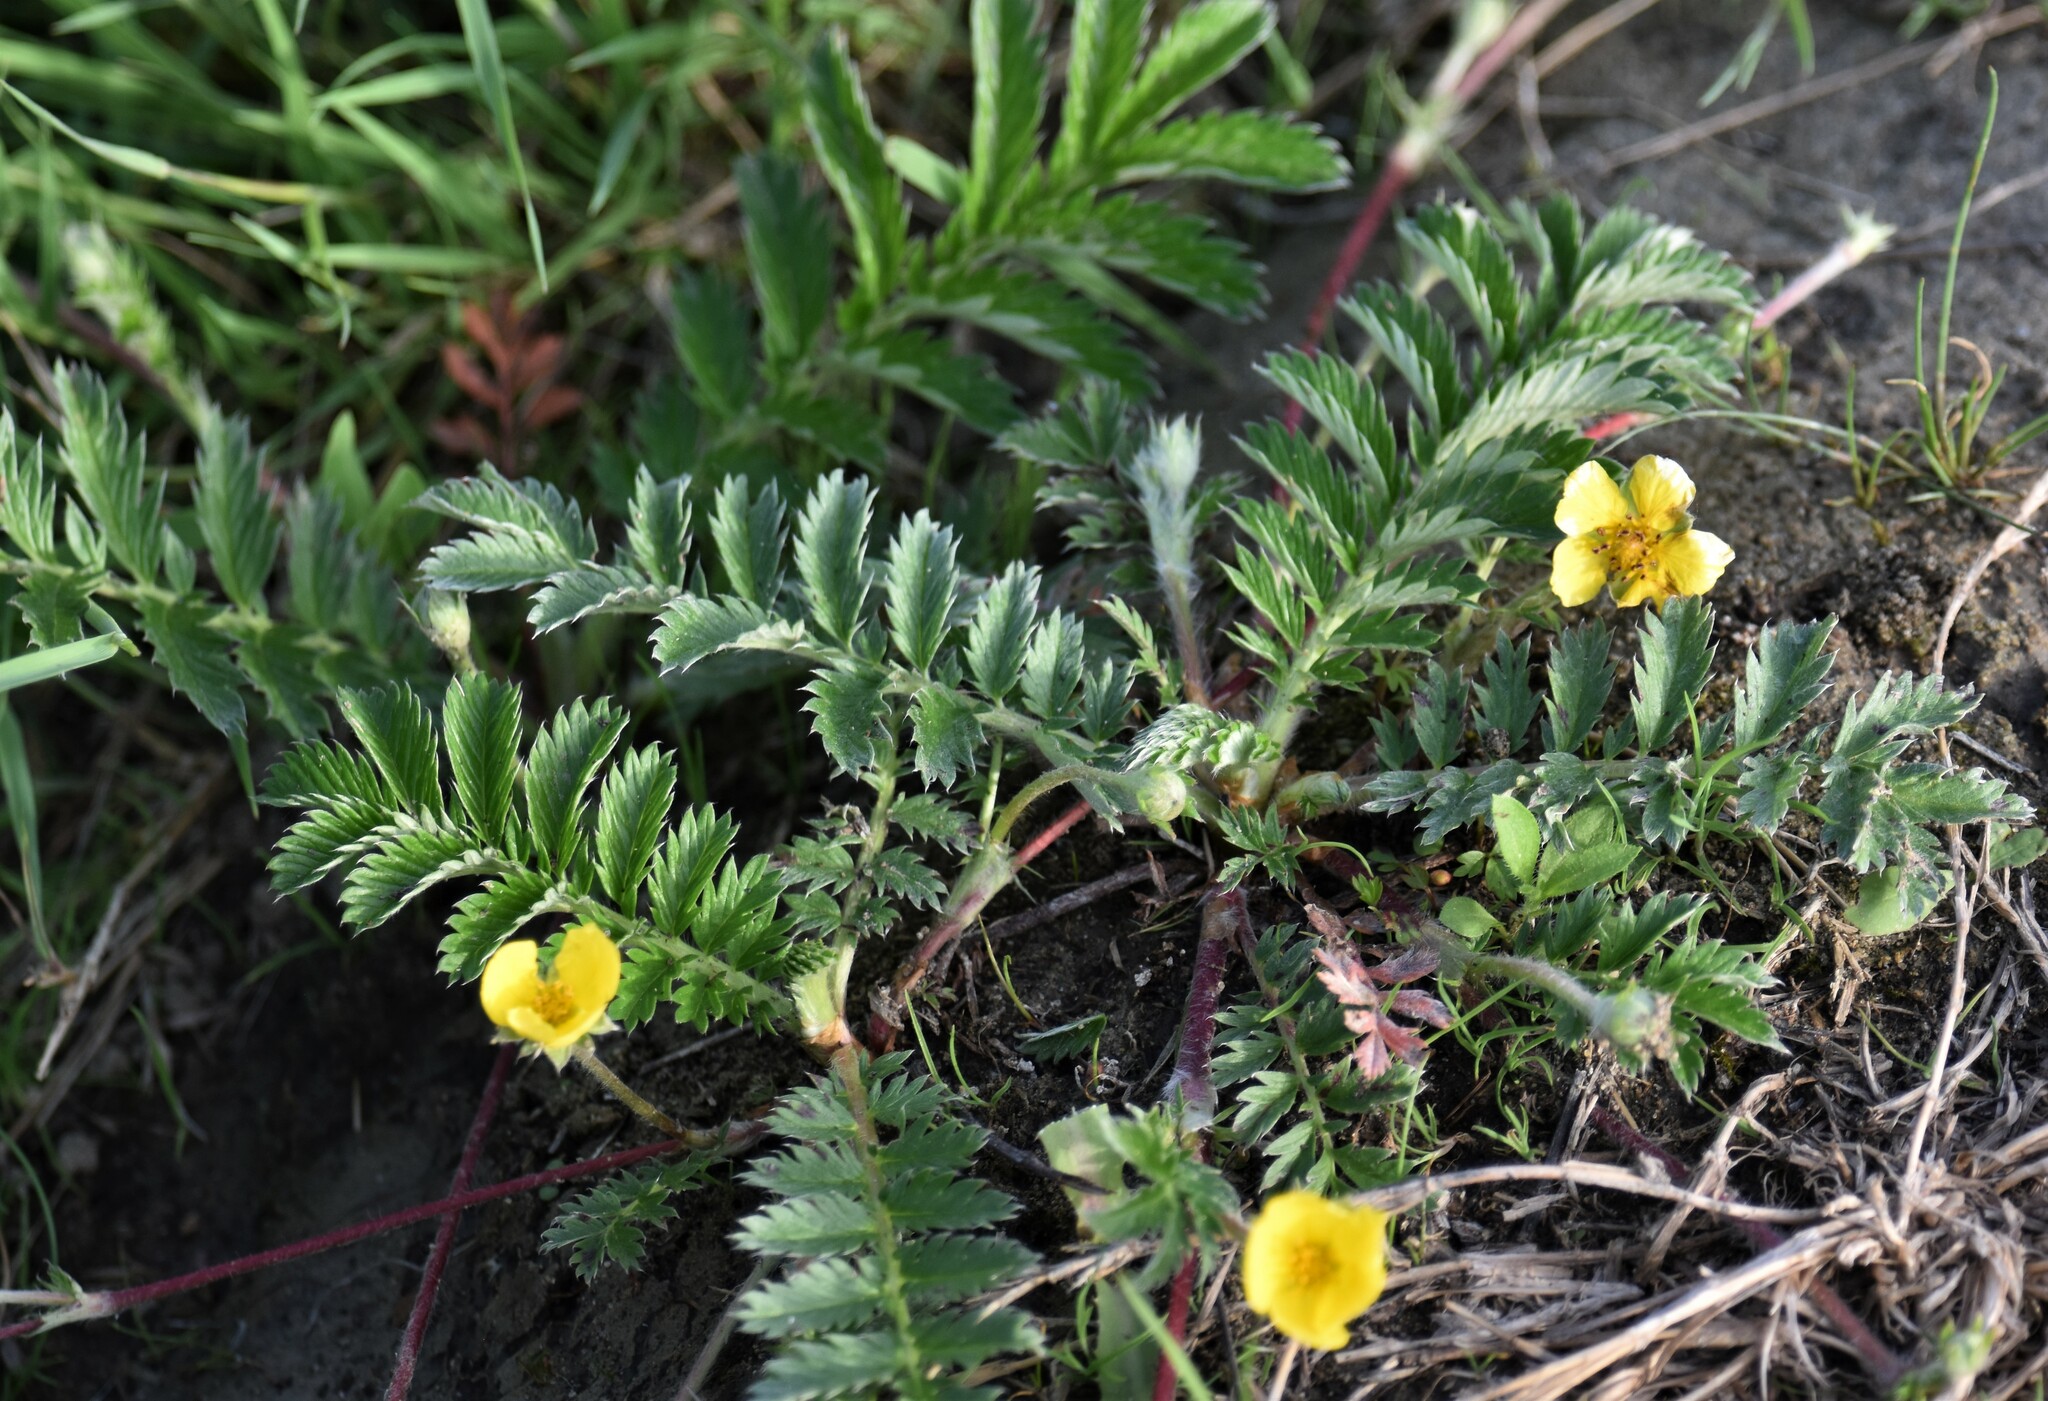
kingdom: Plantae
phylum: Tracheophyta
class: Magnoliopsida
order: Rosales
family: Rosaceae
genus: Argentina
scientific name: Argentina anserina
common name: Common silverweed
